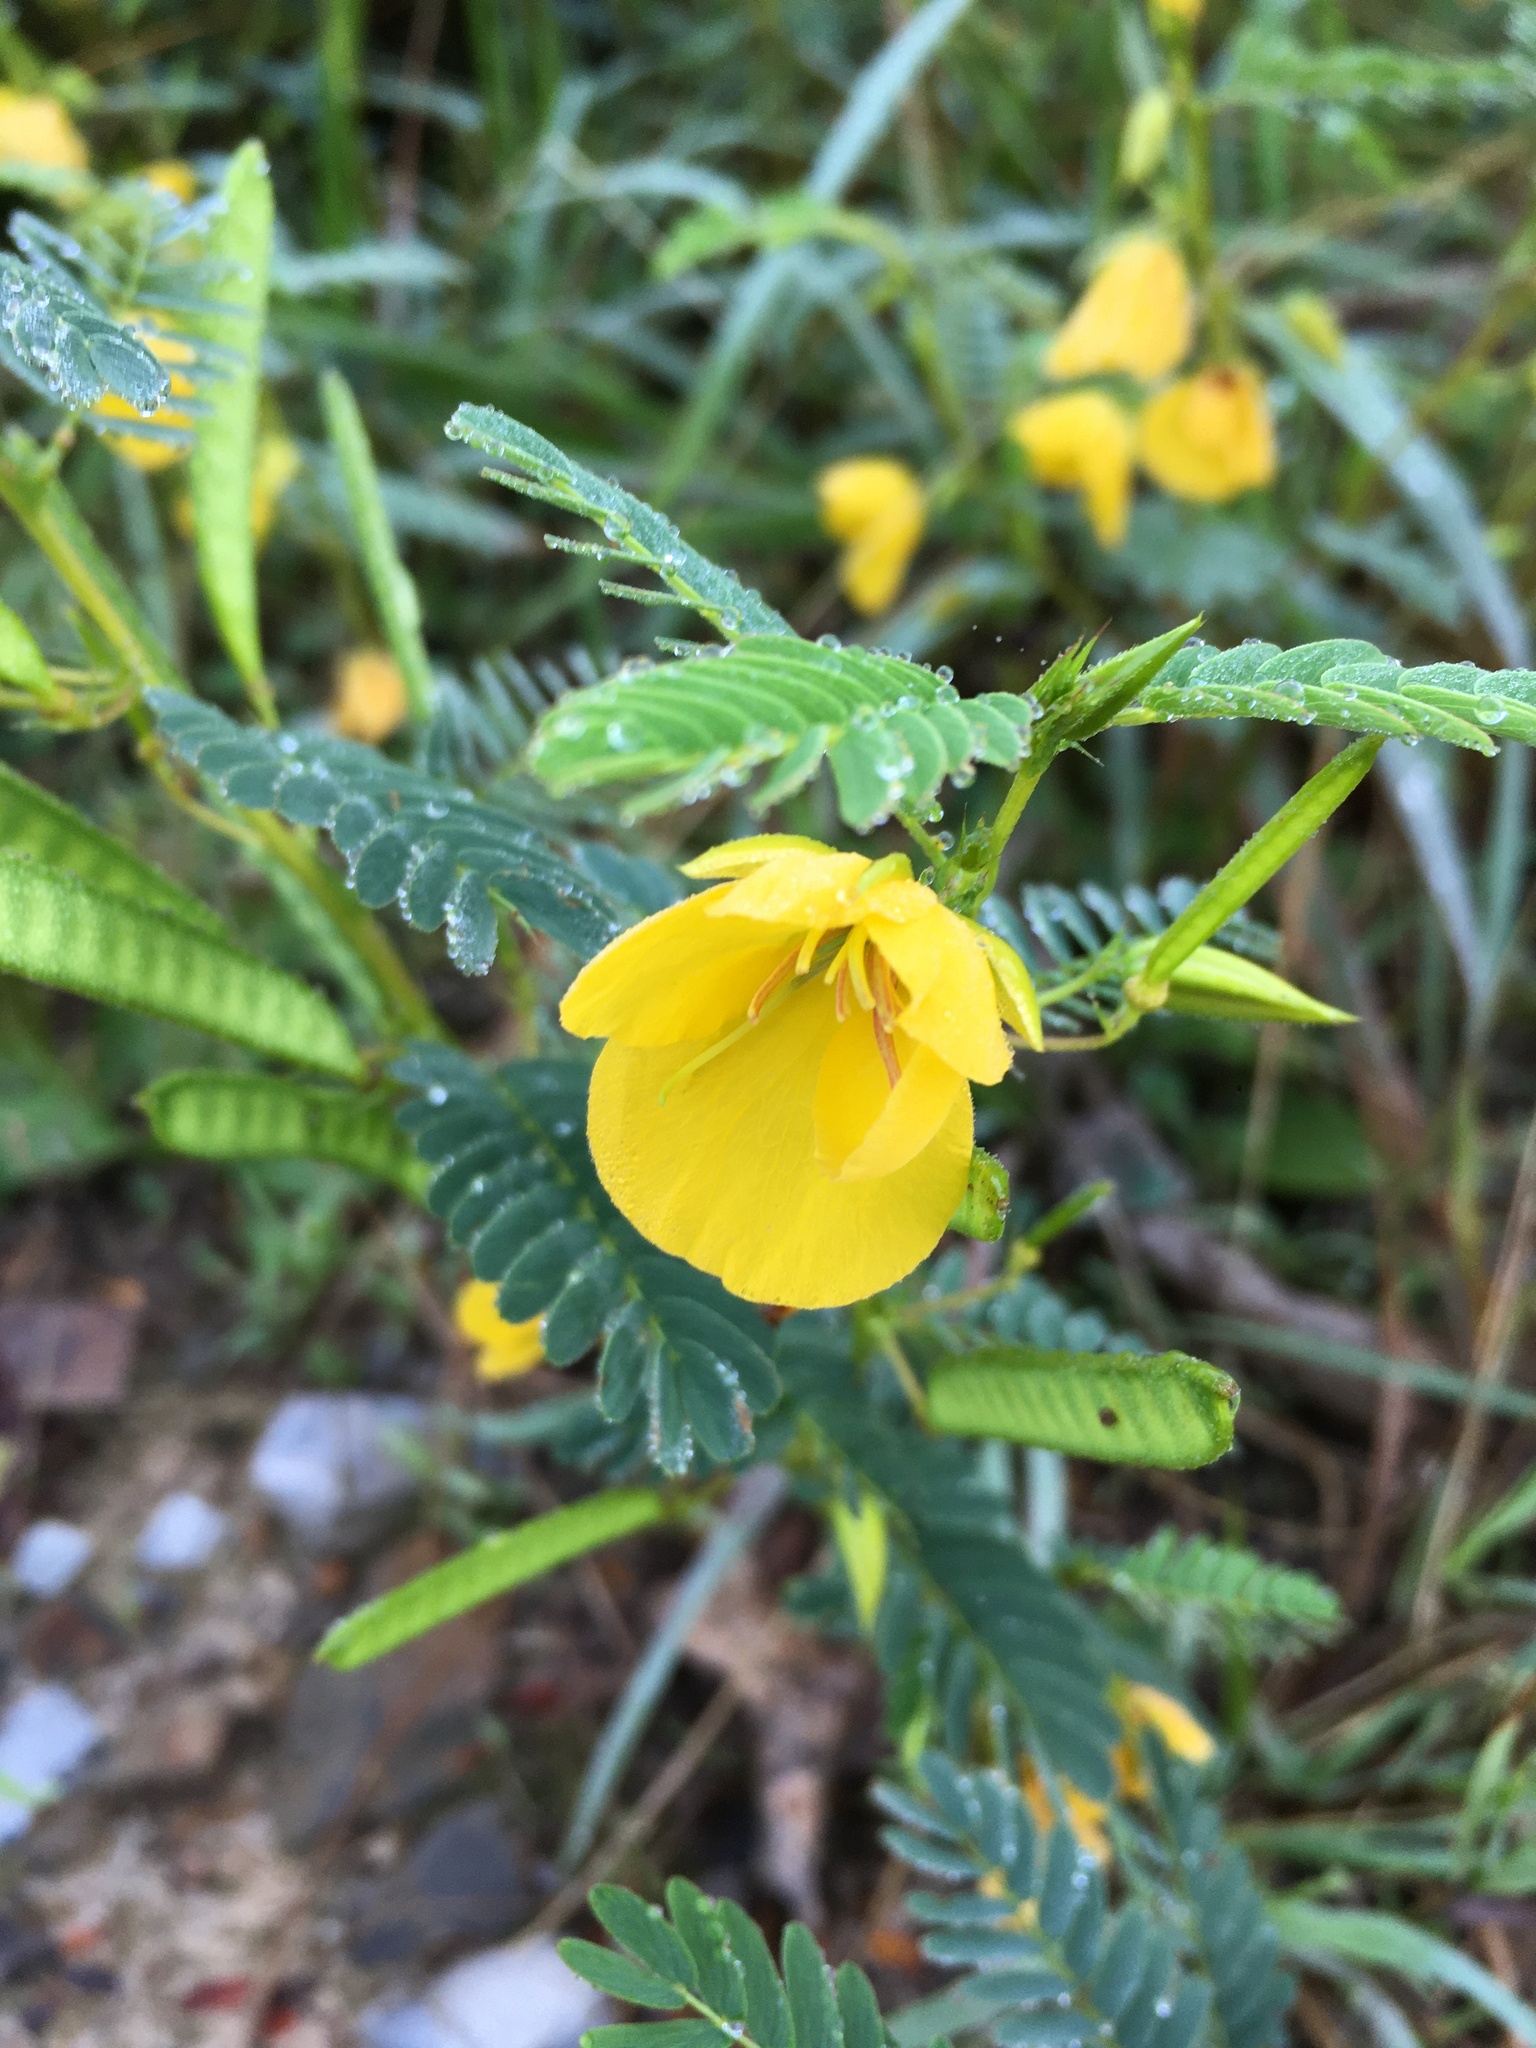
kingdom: Plantae
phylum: Tracheophyta
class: Magnoliopsida
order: Fabales
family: Fabaceae
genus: Chamaecrista
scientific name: Chamaecrista fasciculata
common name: Golden cassia
